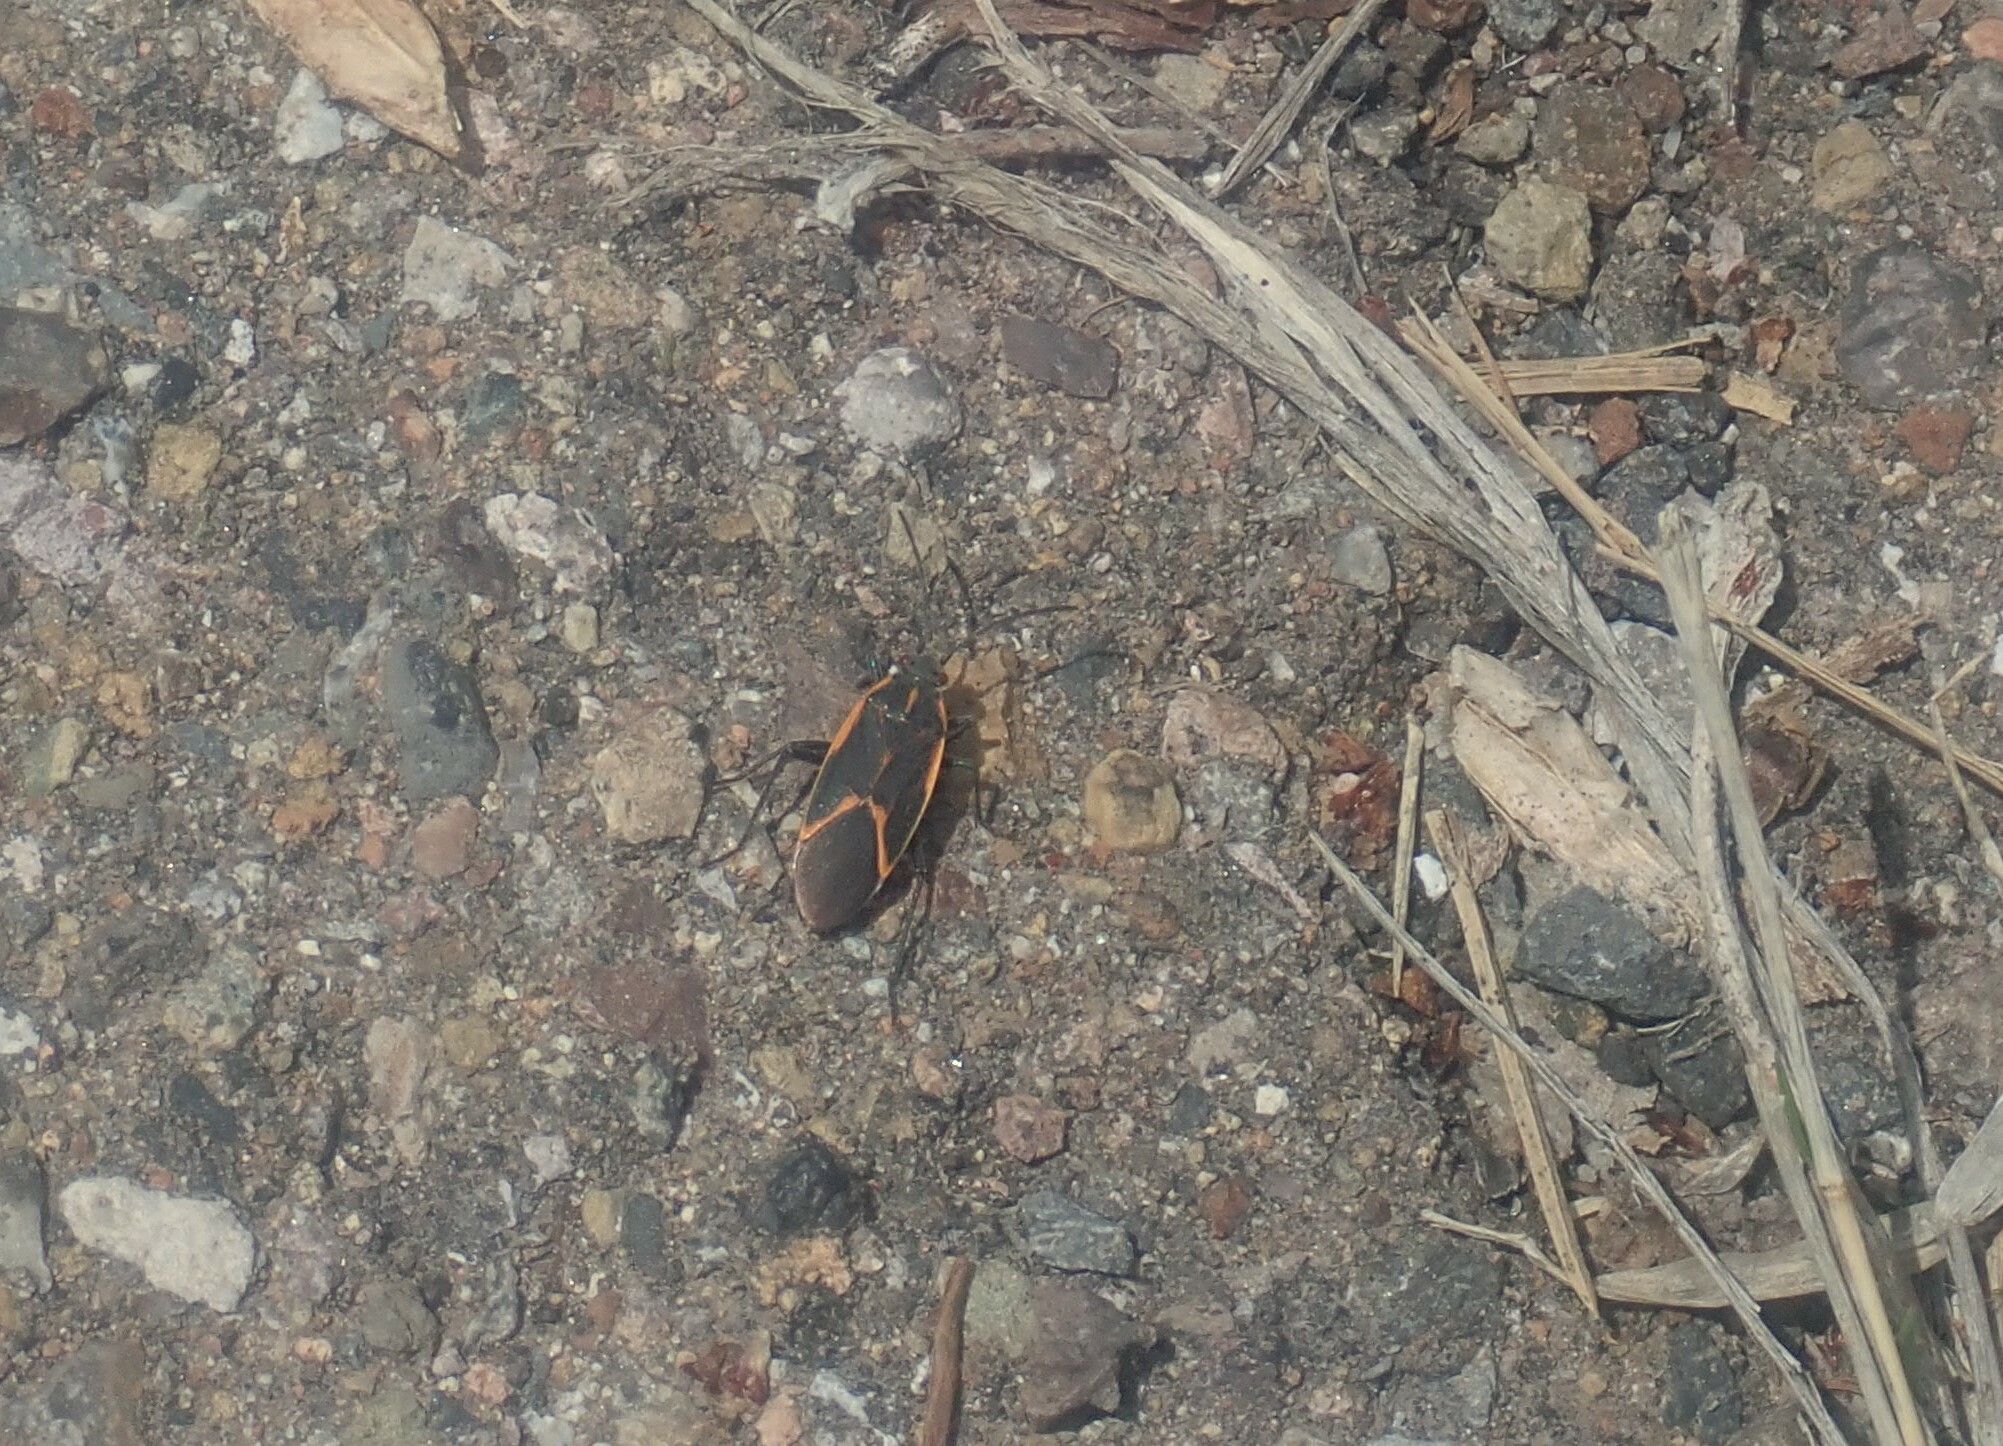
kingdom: Animalia
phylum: Arthropoda
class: Insecta
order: Hemiptera
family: Rhopalidae
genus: Boisea
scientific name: Boisea trivittata
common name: Boxelder bug
